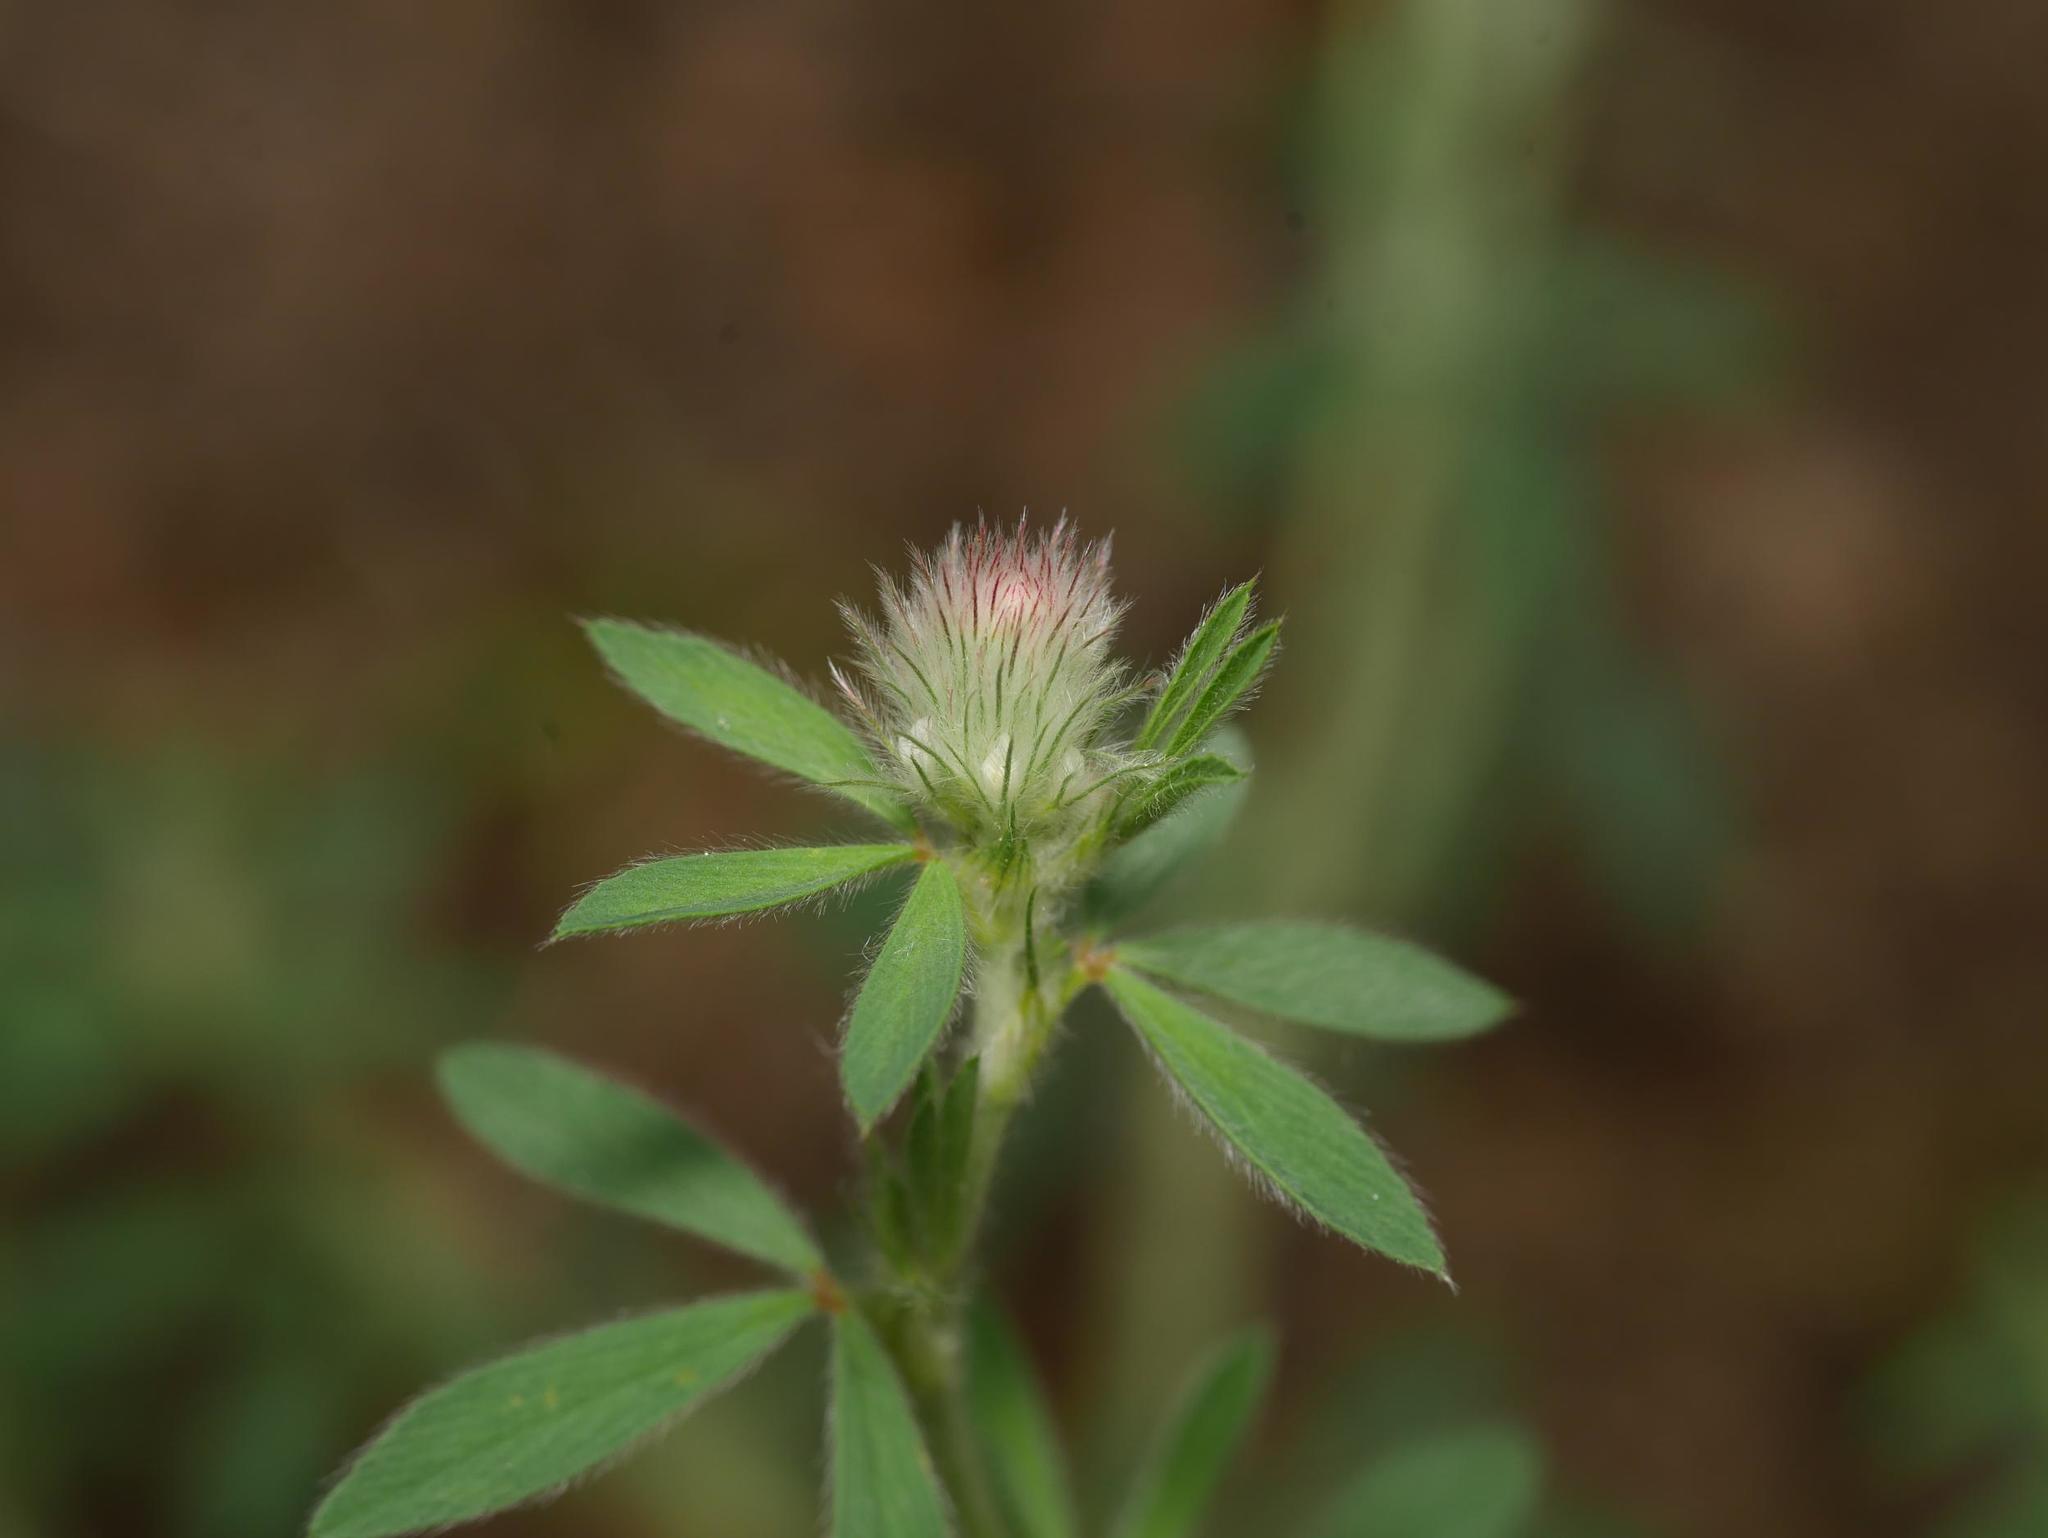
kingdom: Plantae
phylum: Tracheophyta
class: Magnoliopsida
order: Fabales
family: Fabaceae
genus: Trifolium
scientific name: Trifolium arvense
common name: Hare's-foot clover
